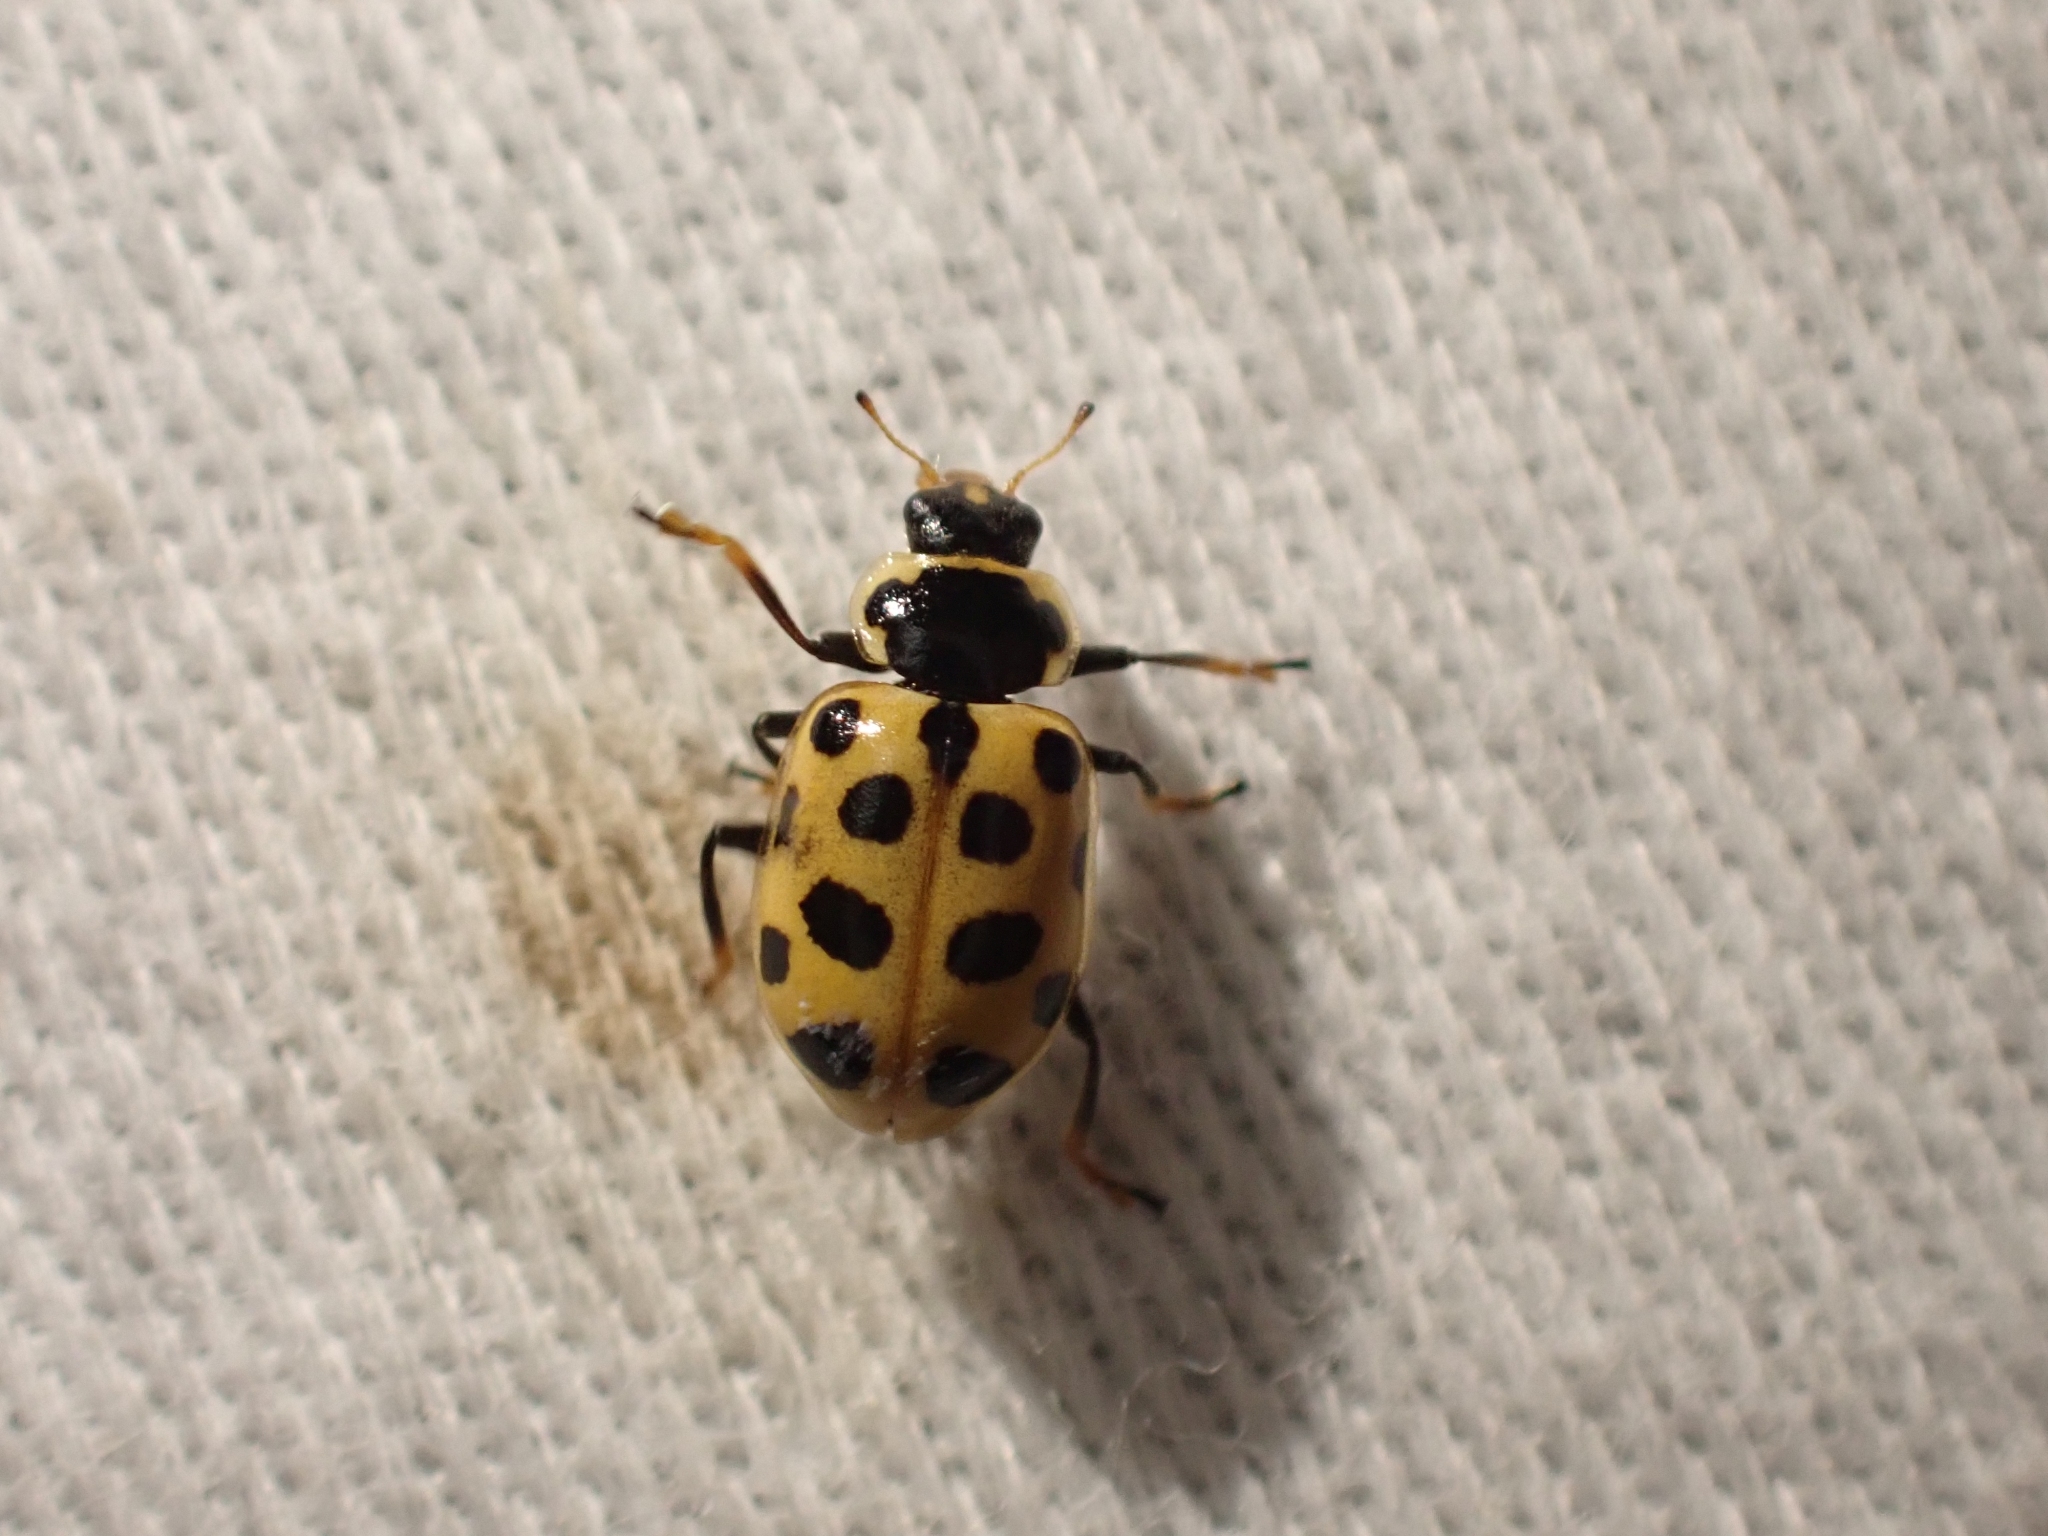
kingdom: Animalia
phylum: Arthropoda
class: Insecta
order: Coleoptera
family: Coccinellidae
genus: Hippodamia
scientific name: Hippodamia tredecimpunctata
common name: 13-spot ladybird
